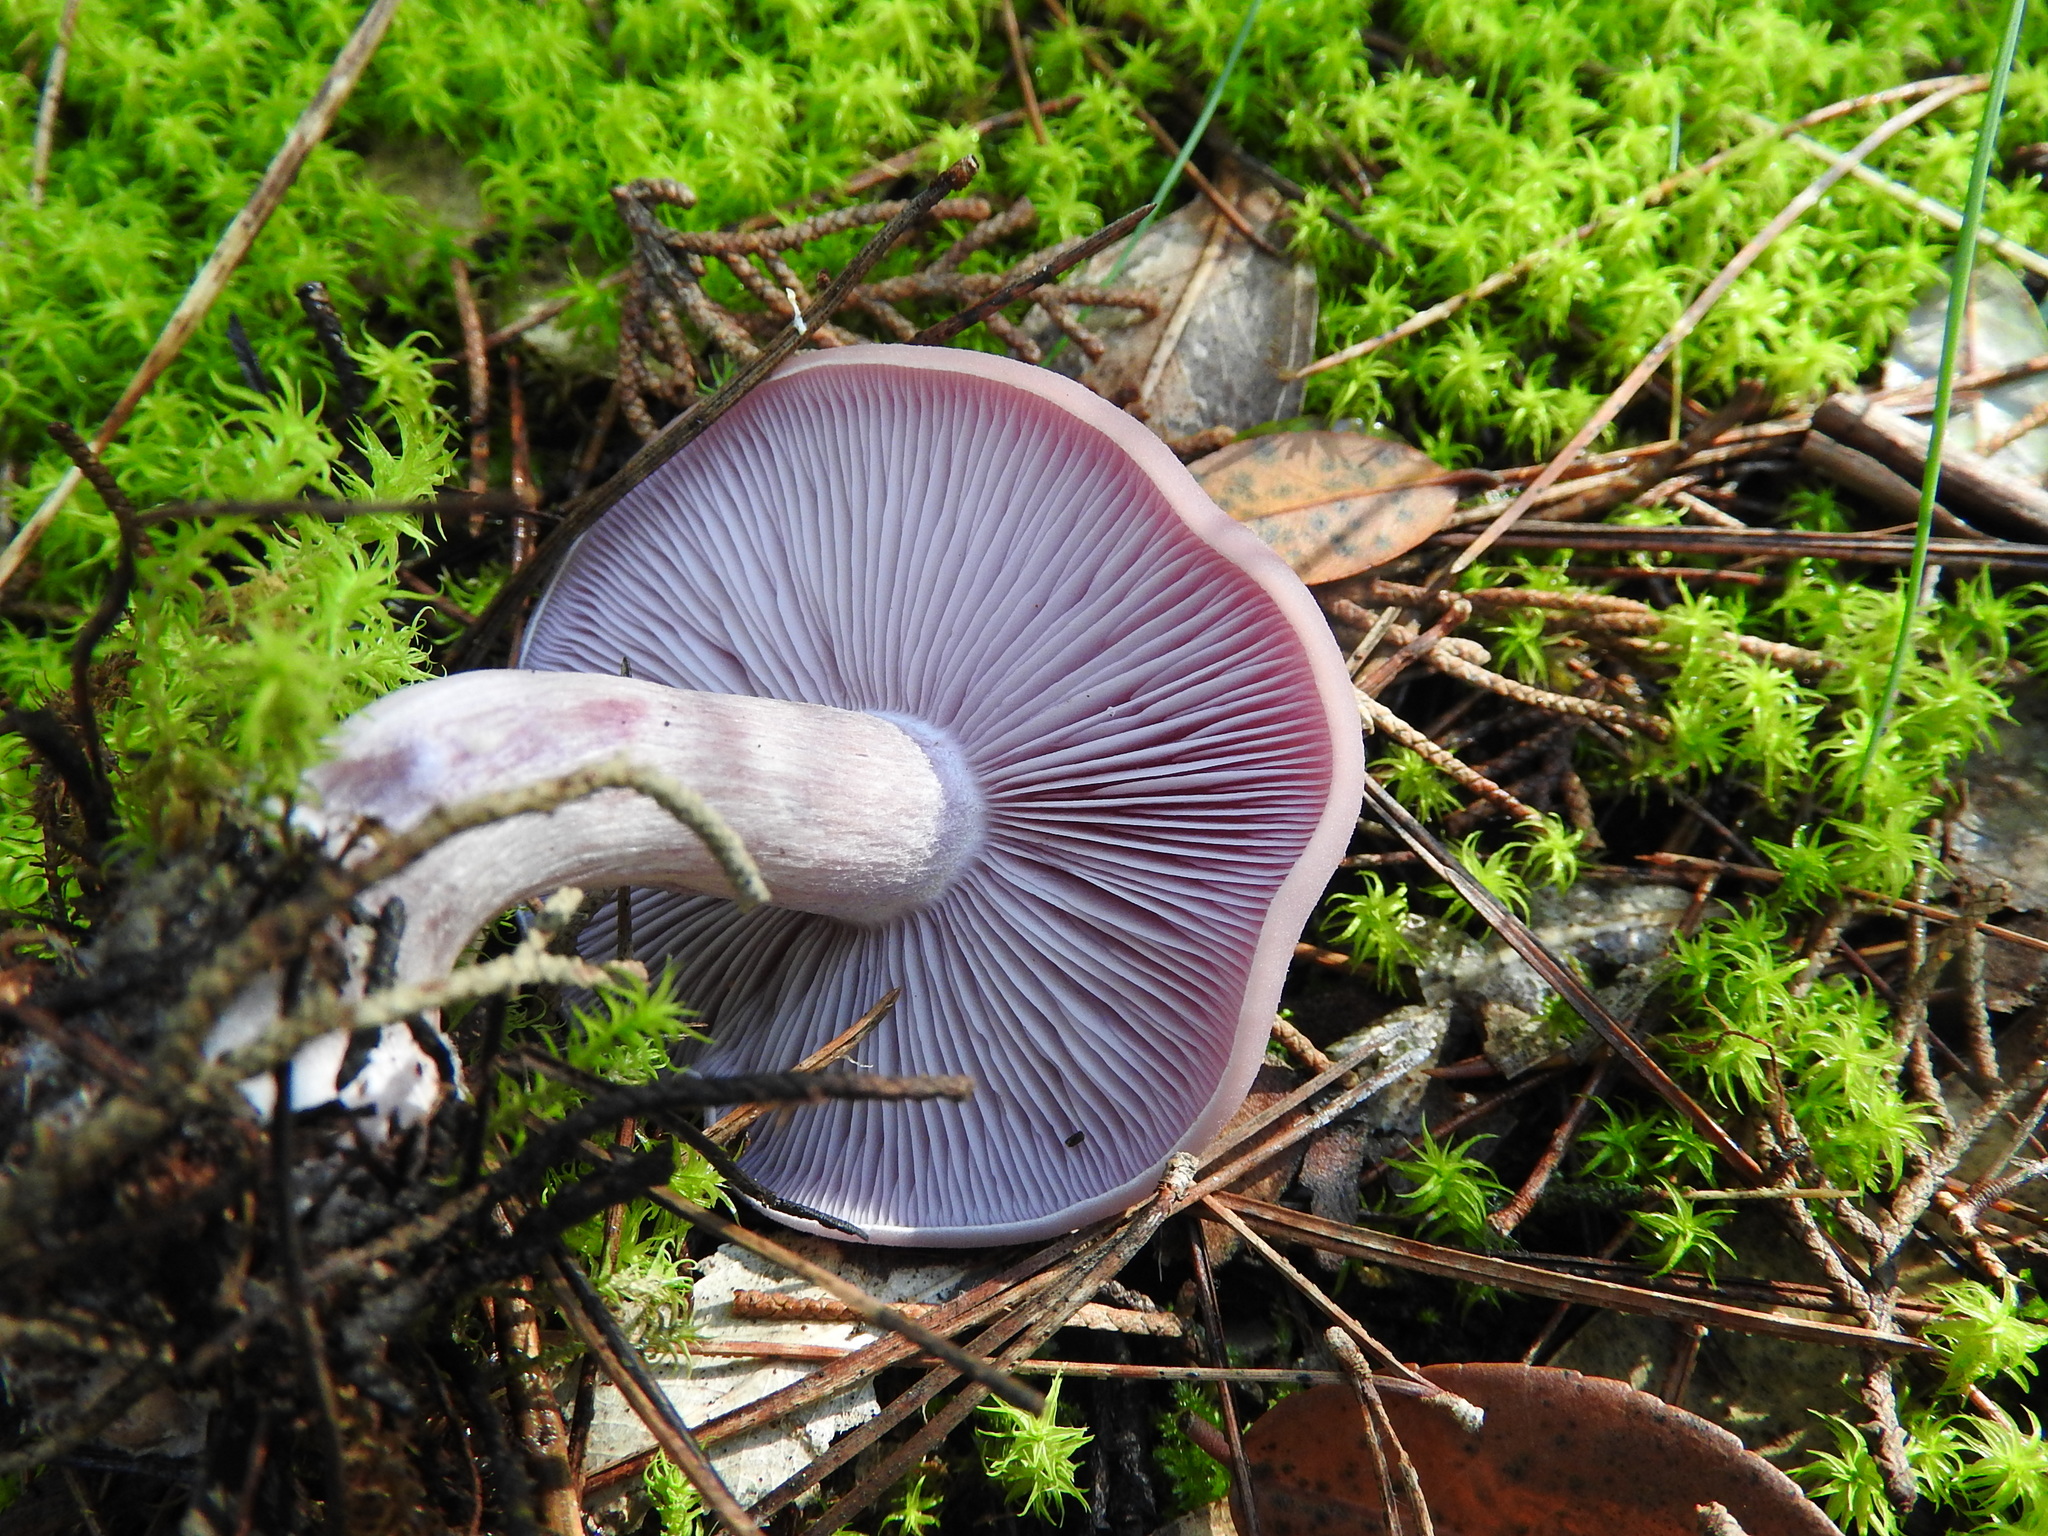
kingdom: Fungi
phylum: Basidiomycota
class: Agaricomycetes
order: Agaricales
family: Tricholomataceae
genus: Collybia
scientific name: Collybia
